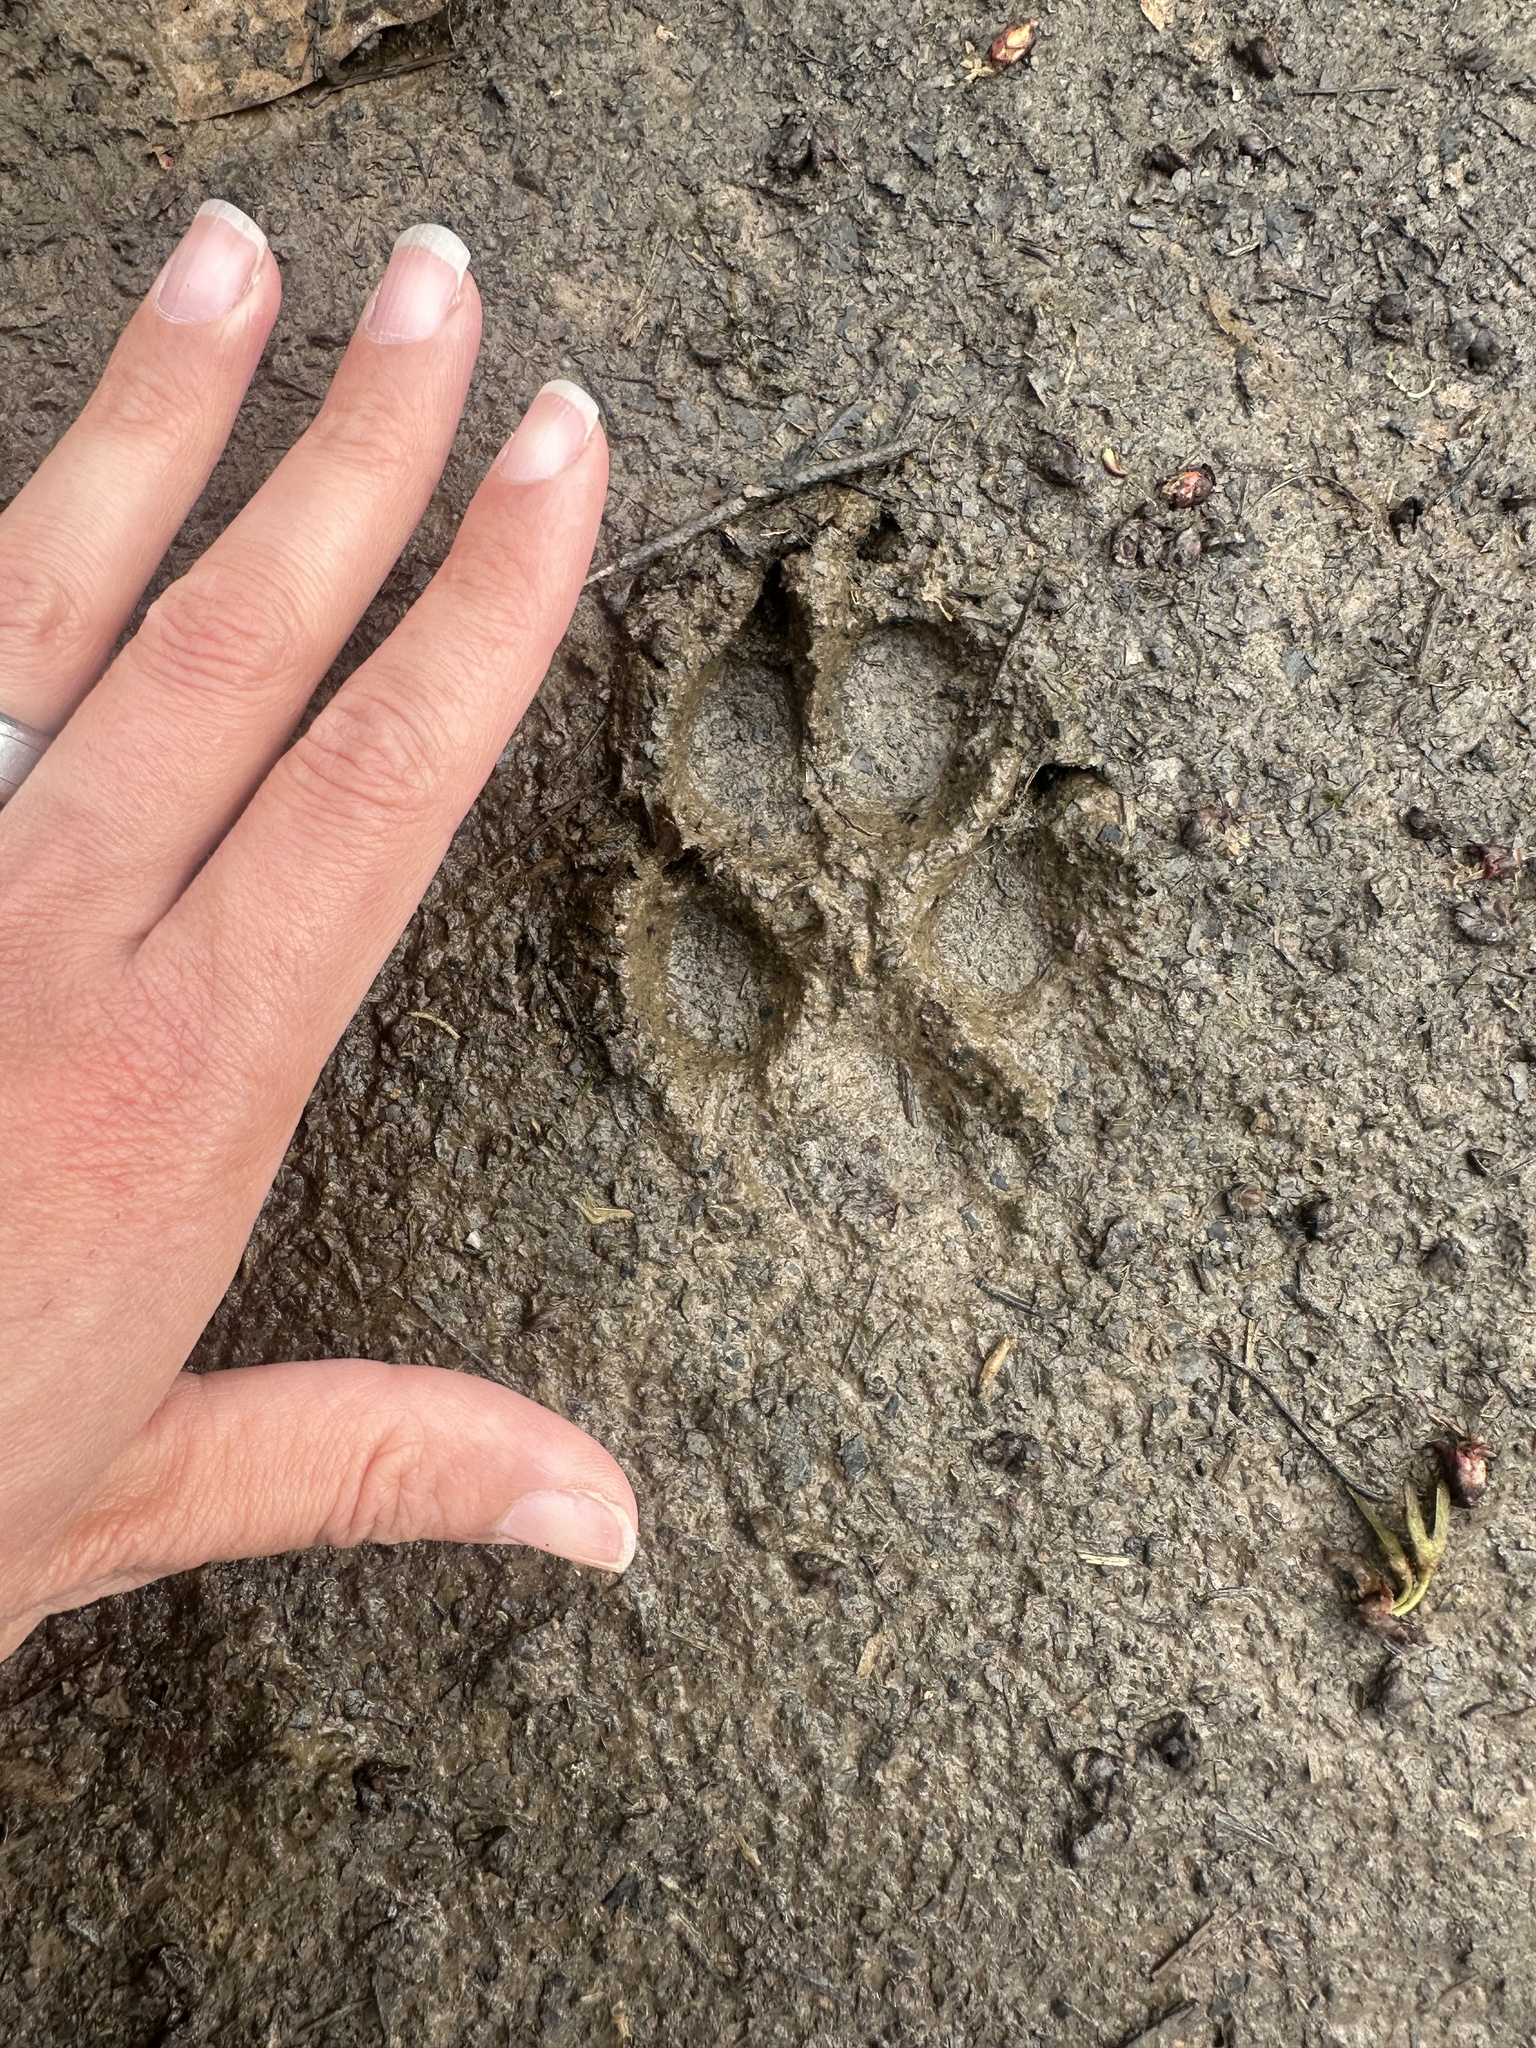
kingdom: Animalia
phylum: Chordata
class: Mammalia
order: Carnivora
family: Canidae
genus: Canis
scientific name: Canis latrans
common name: Coyote
